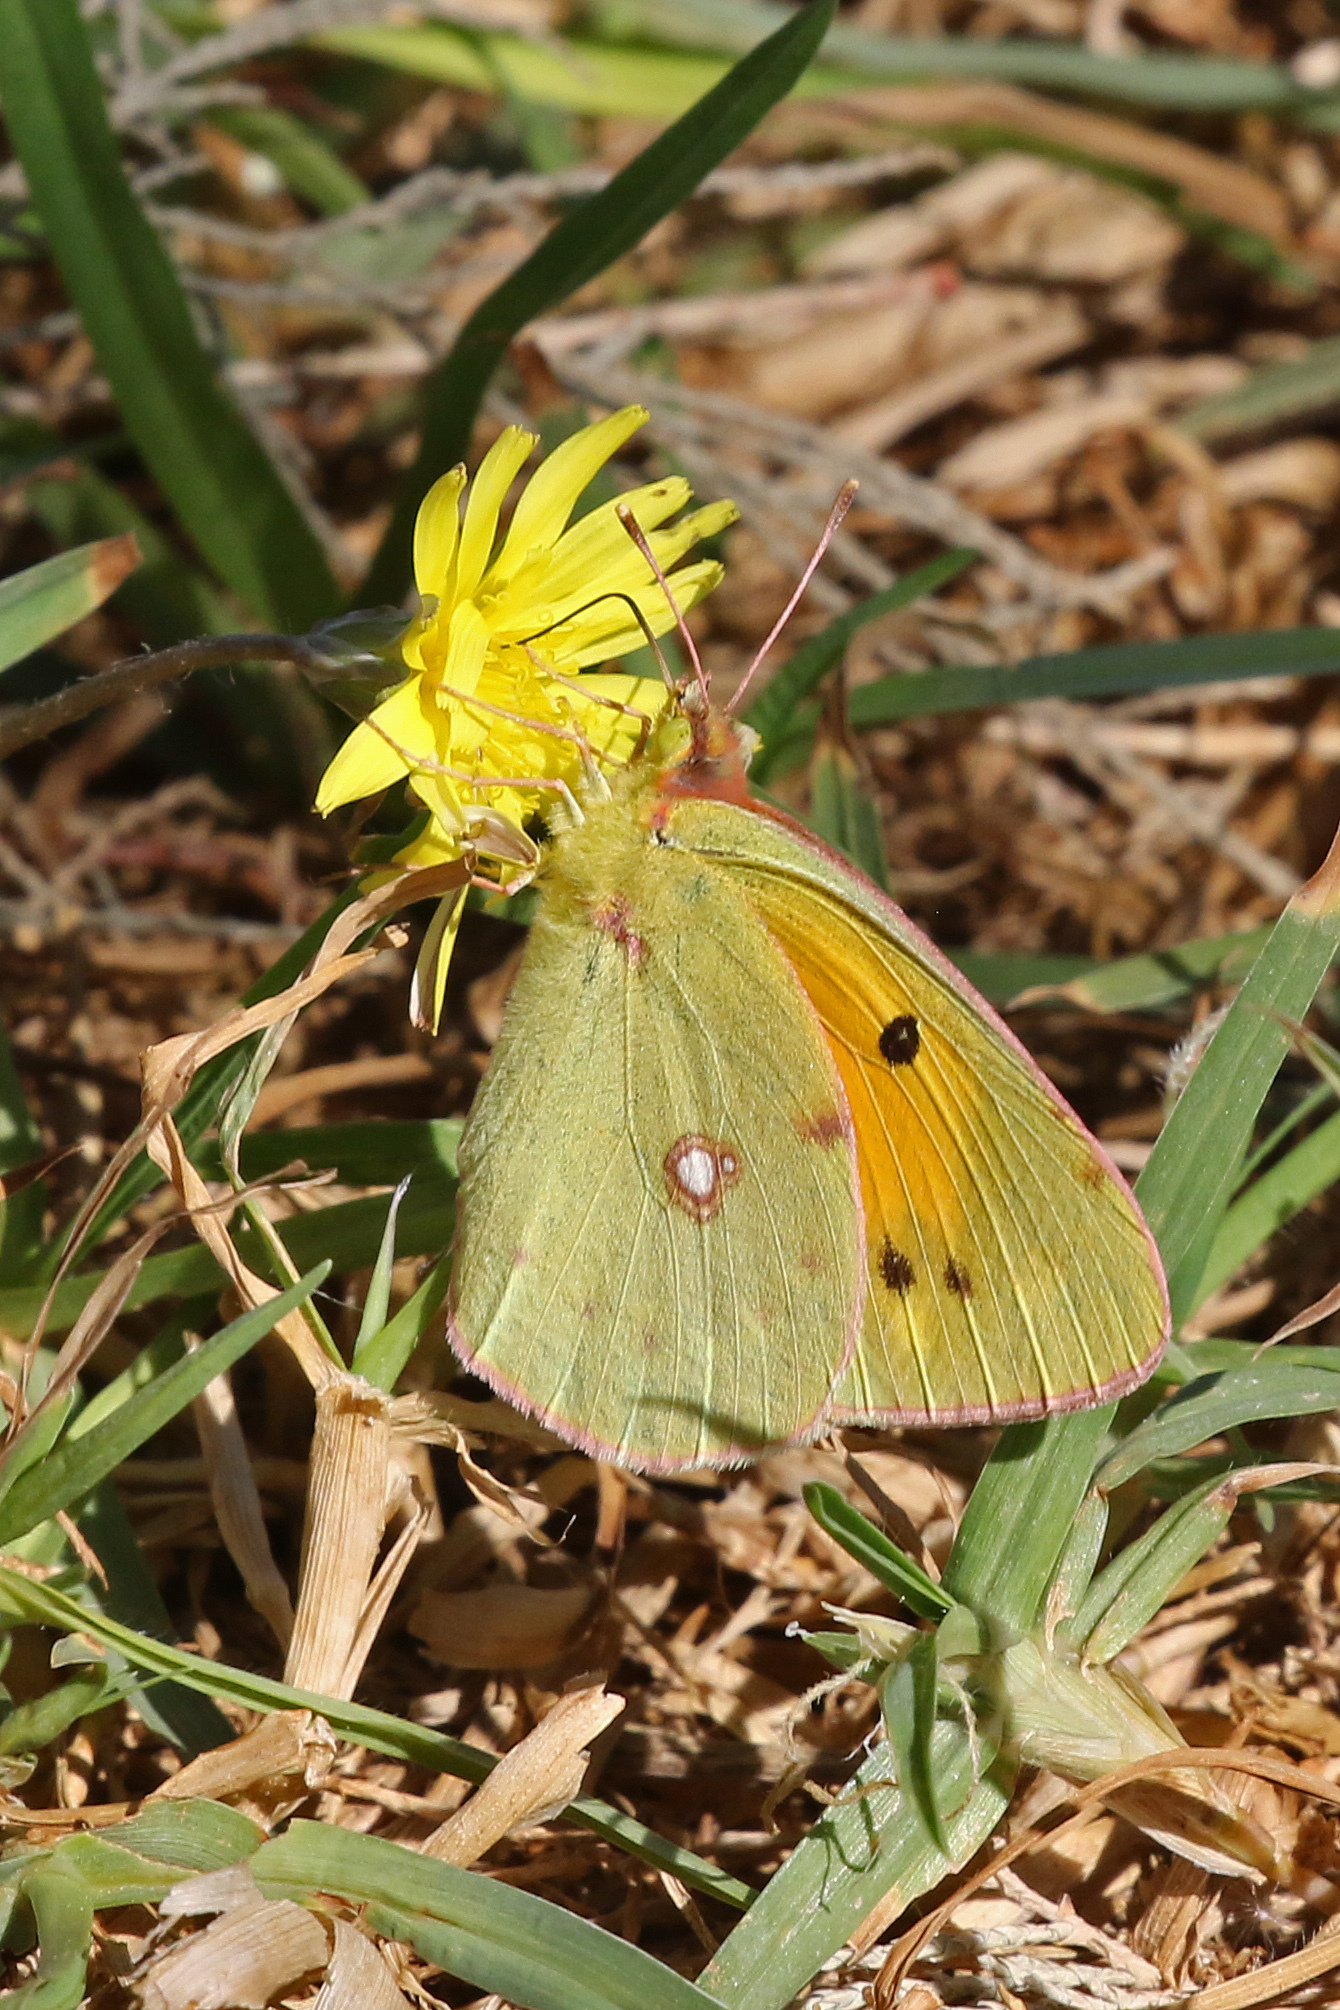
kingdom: Animalia
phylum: Arthropoda
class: Insecta
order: Lepidoptera
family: Pieridae
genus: Colias
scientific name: Colias croceus
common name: Clouded yellow
